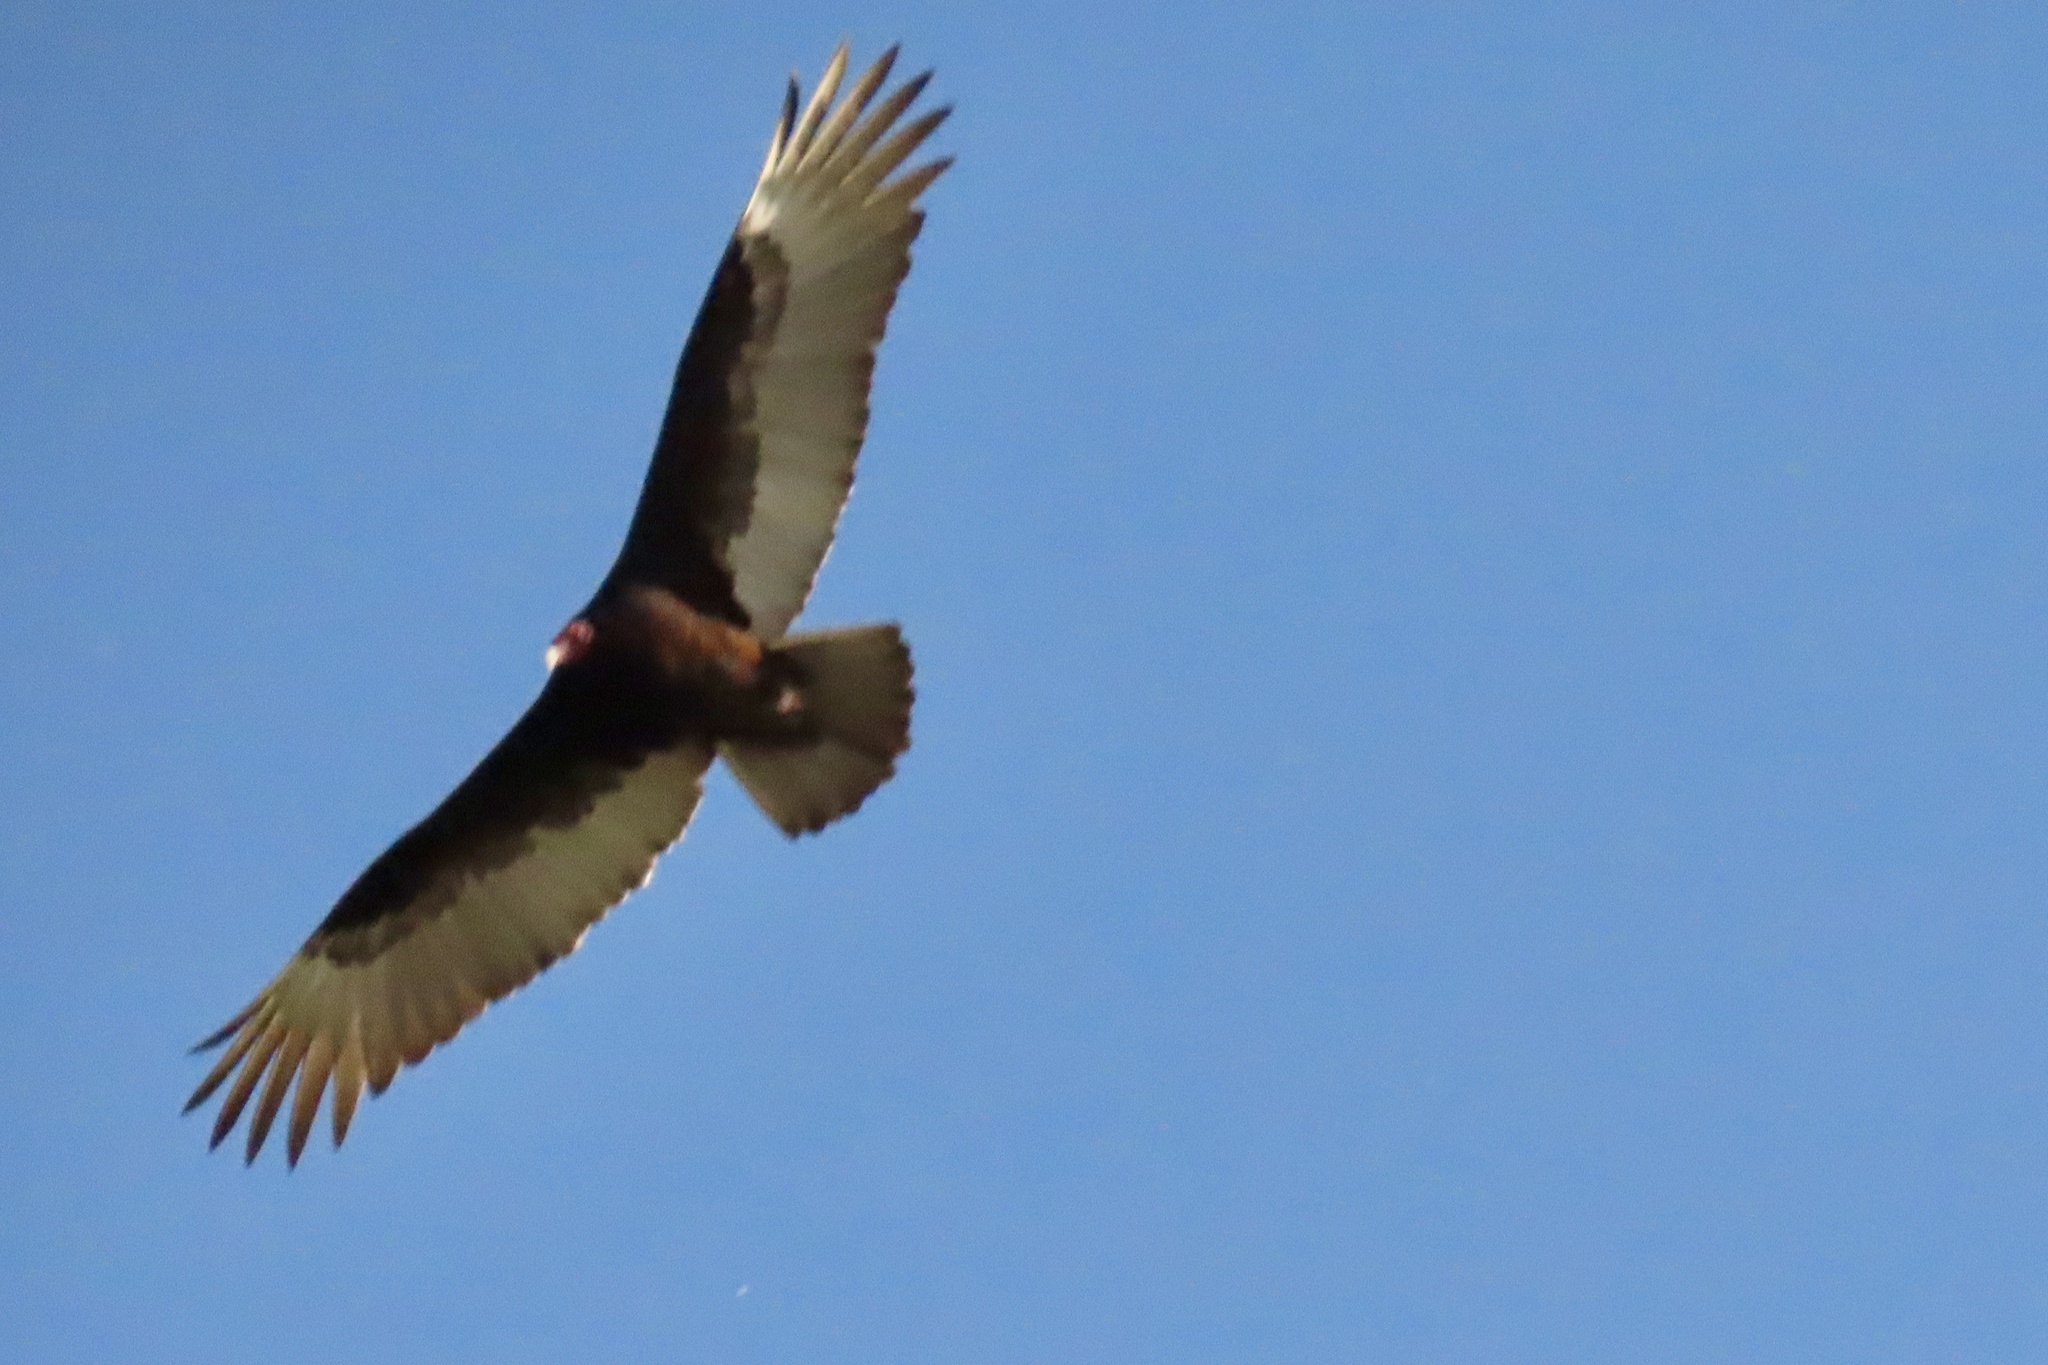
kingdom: Animalia
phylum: Chordata
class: Aves
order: Accipitriformes
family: Cathartidae
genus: Cathartes
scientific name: Cathartes aura
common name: Turkey vulture
